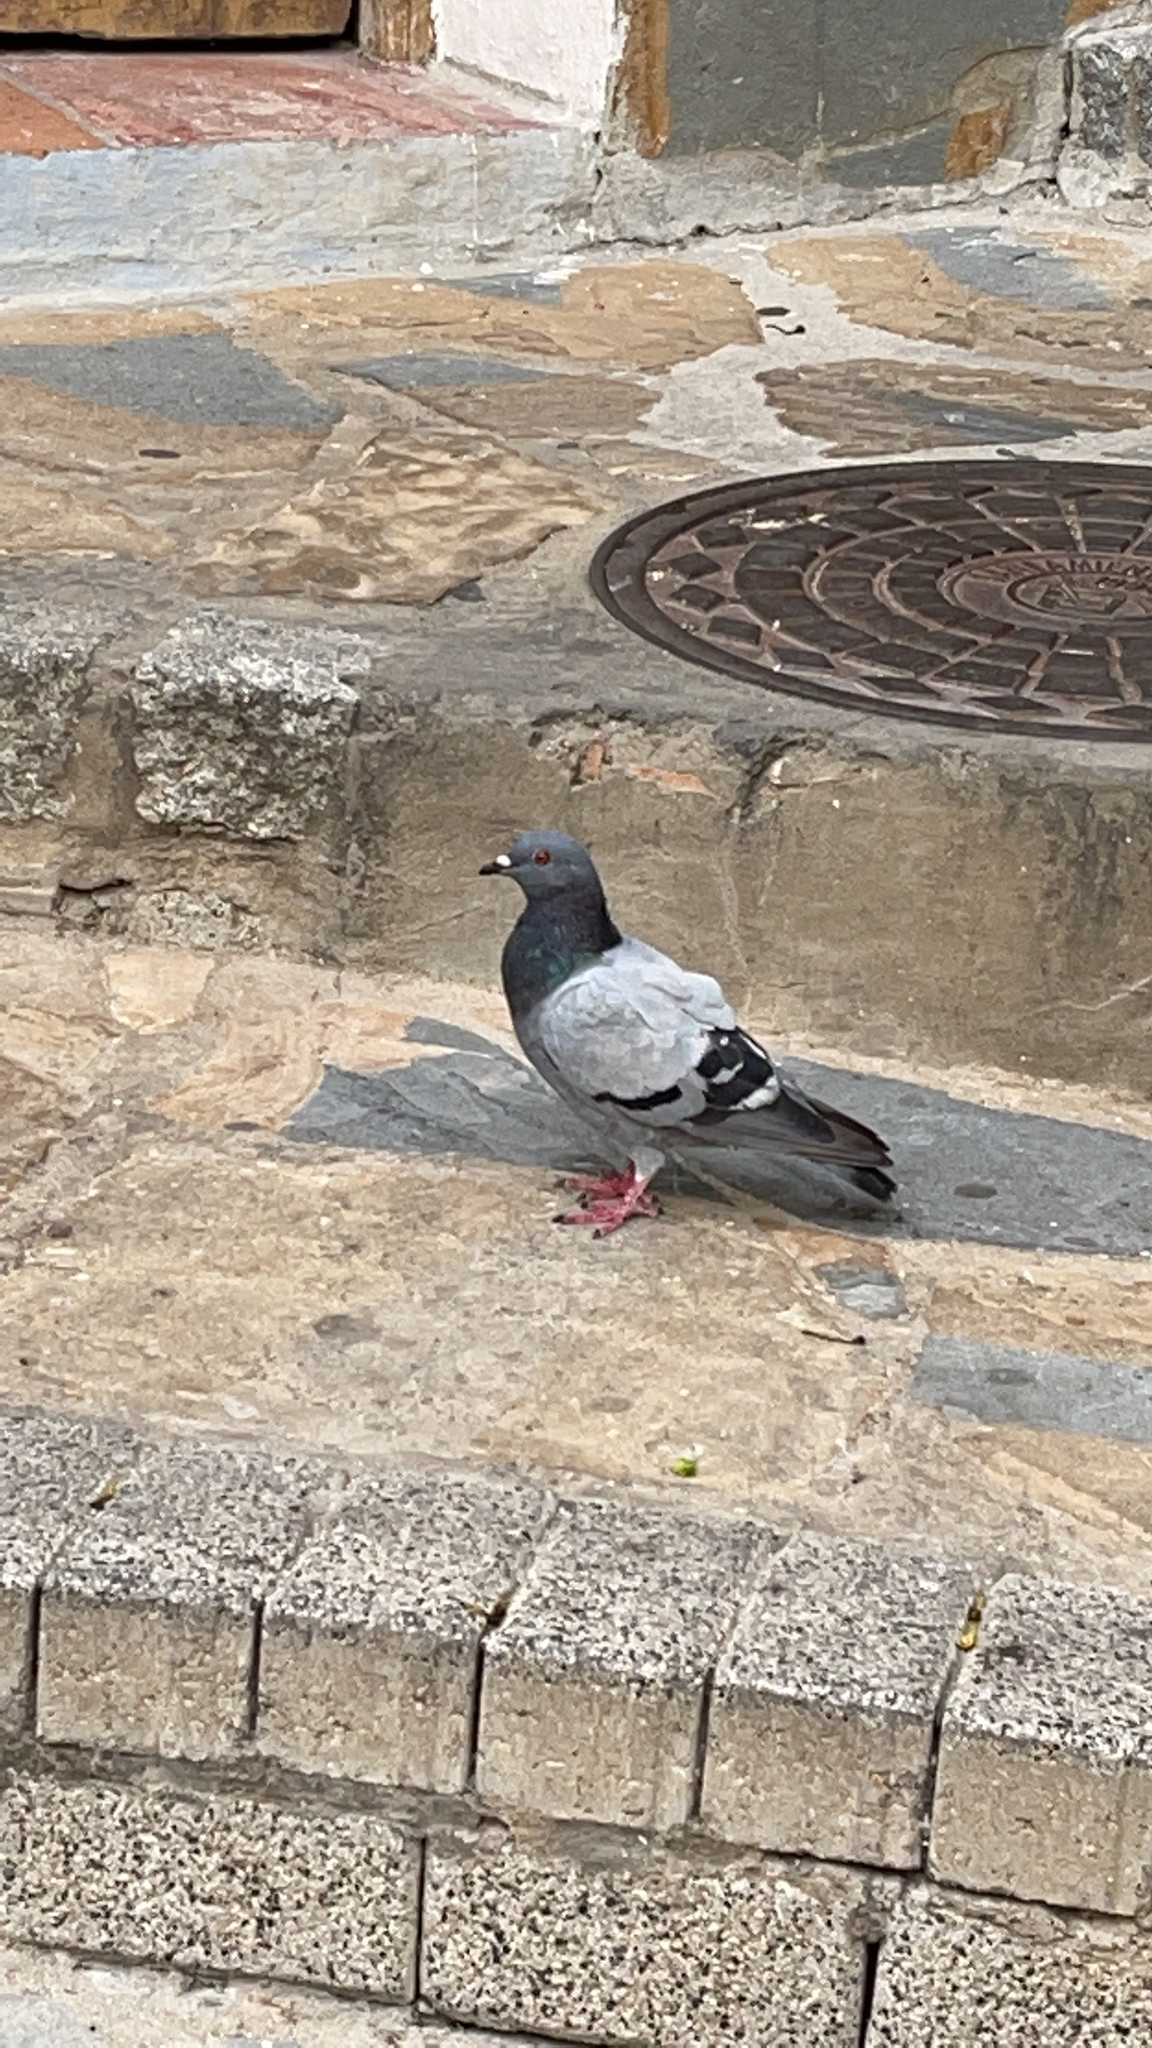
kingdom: Animalia
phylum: Chordata
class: Aves
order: Columbiformes
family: Columbidae
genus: Columba
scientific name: Columba livia
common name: Rock pigeon
